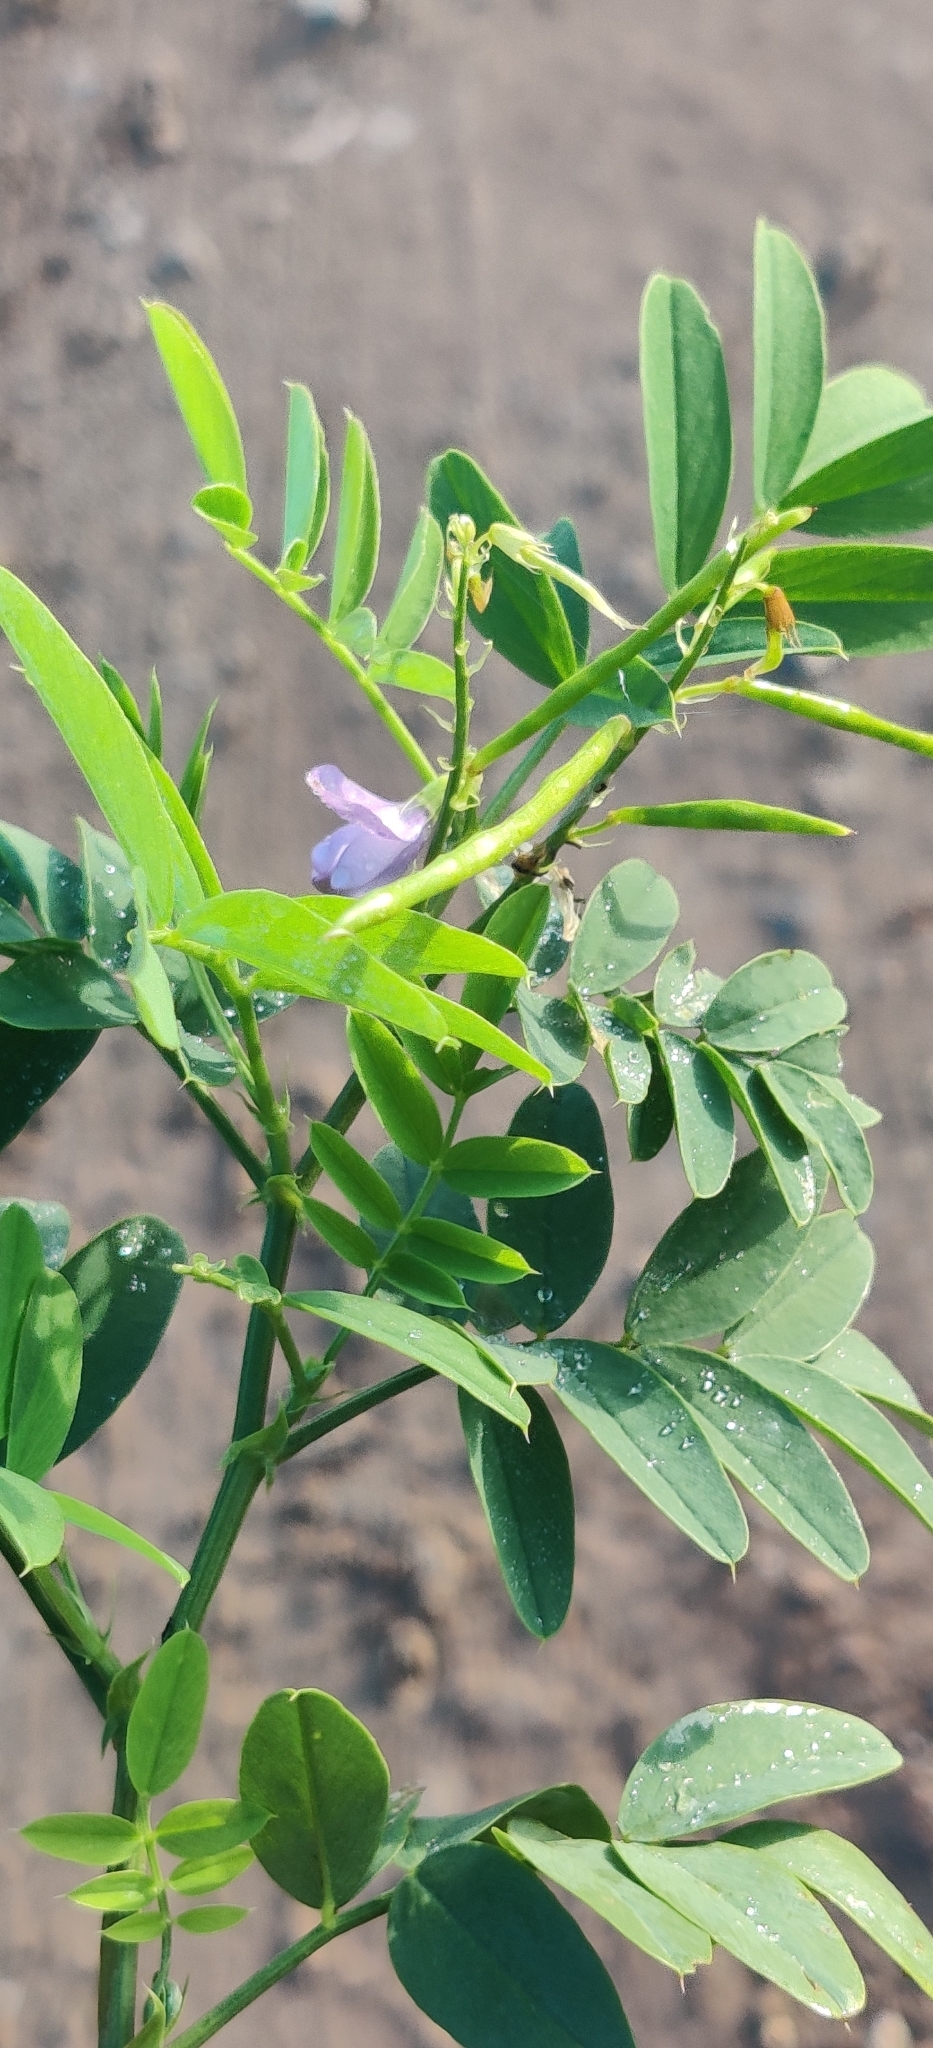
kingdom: Plantae
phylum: Tracheophyta
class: Magnoliopsida
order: Fabales
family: Fabaceae
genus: Galega
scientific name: Galega officinalis
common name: Goat's-rue
